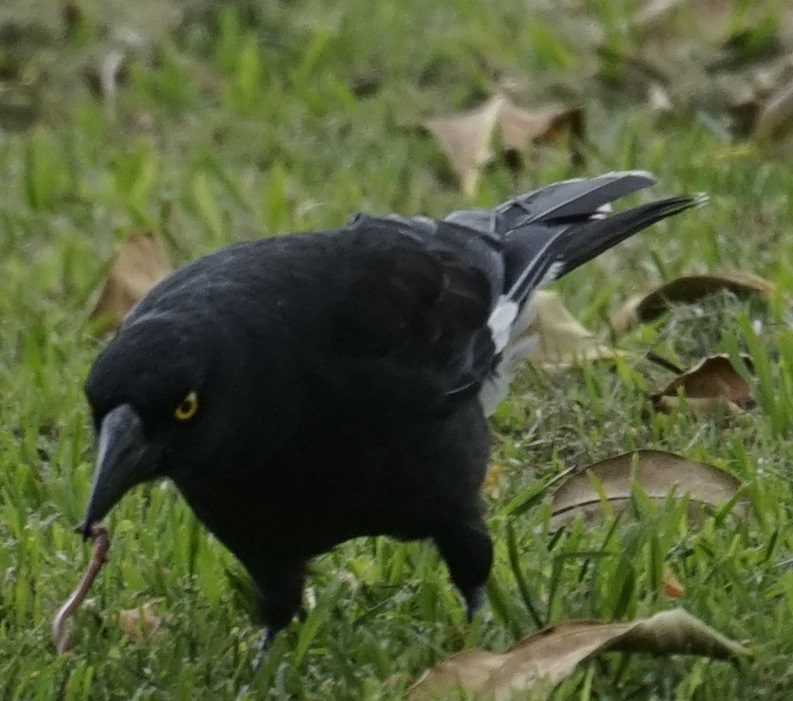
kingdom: Animalia
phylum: Chordata
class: Aves
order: Passeriformes
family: Cracticidae
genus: Strepera
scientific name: Strepera graculina
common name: Pied currawong
